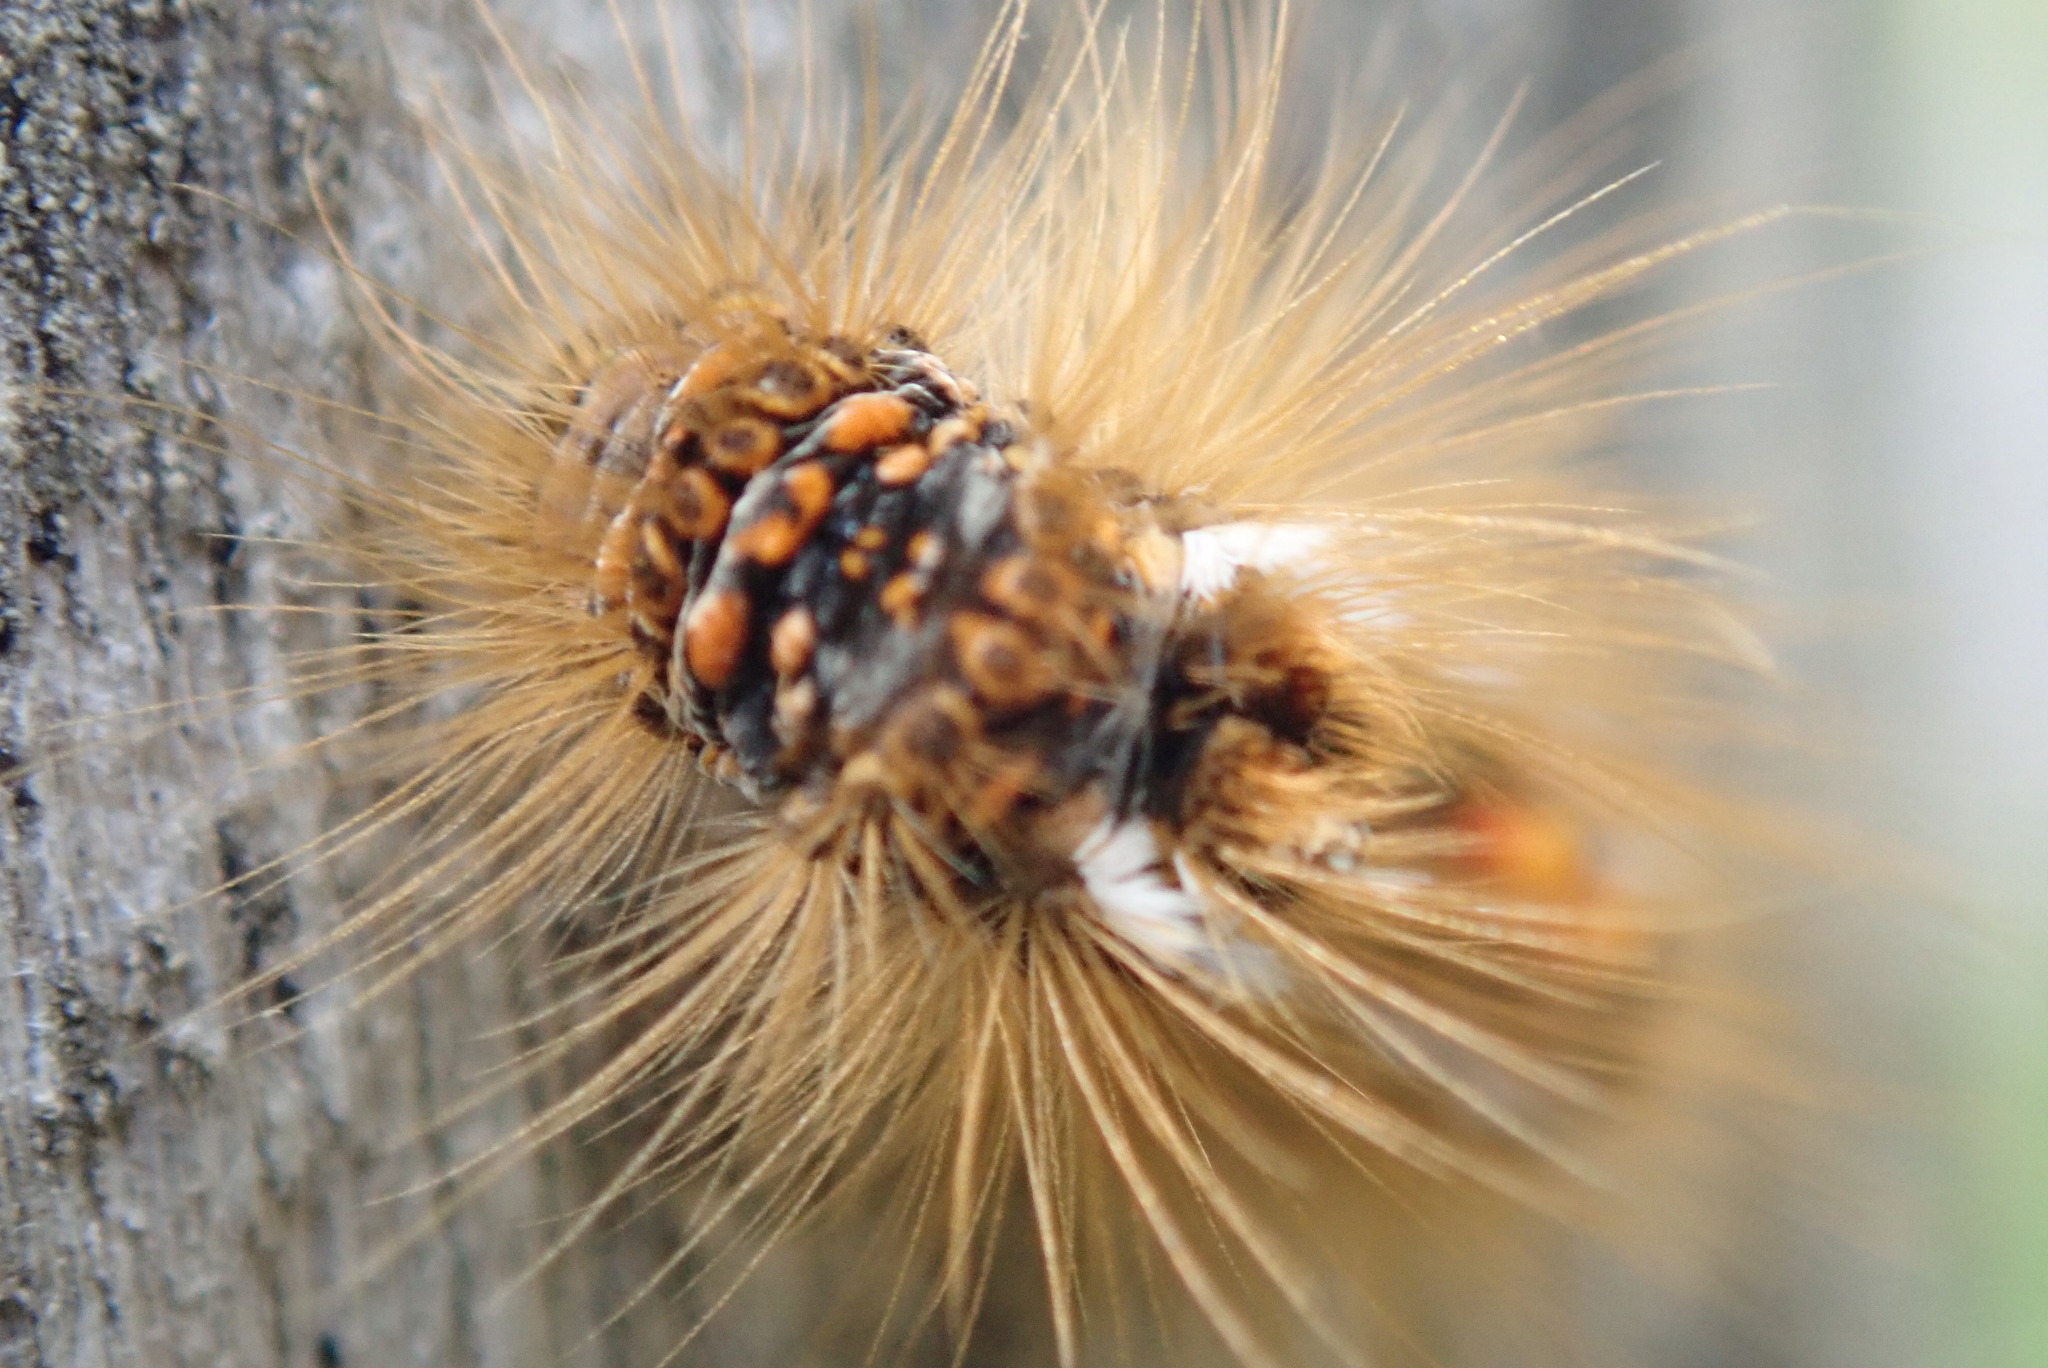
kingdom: Animalia
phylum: Arthropoda
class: Insecta
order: Lepidoptera
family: Erebidae
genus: Euproctis
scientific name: Euproctis chrysorrhoea
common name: Brown-tail
